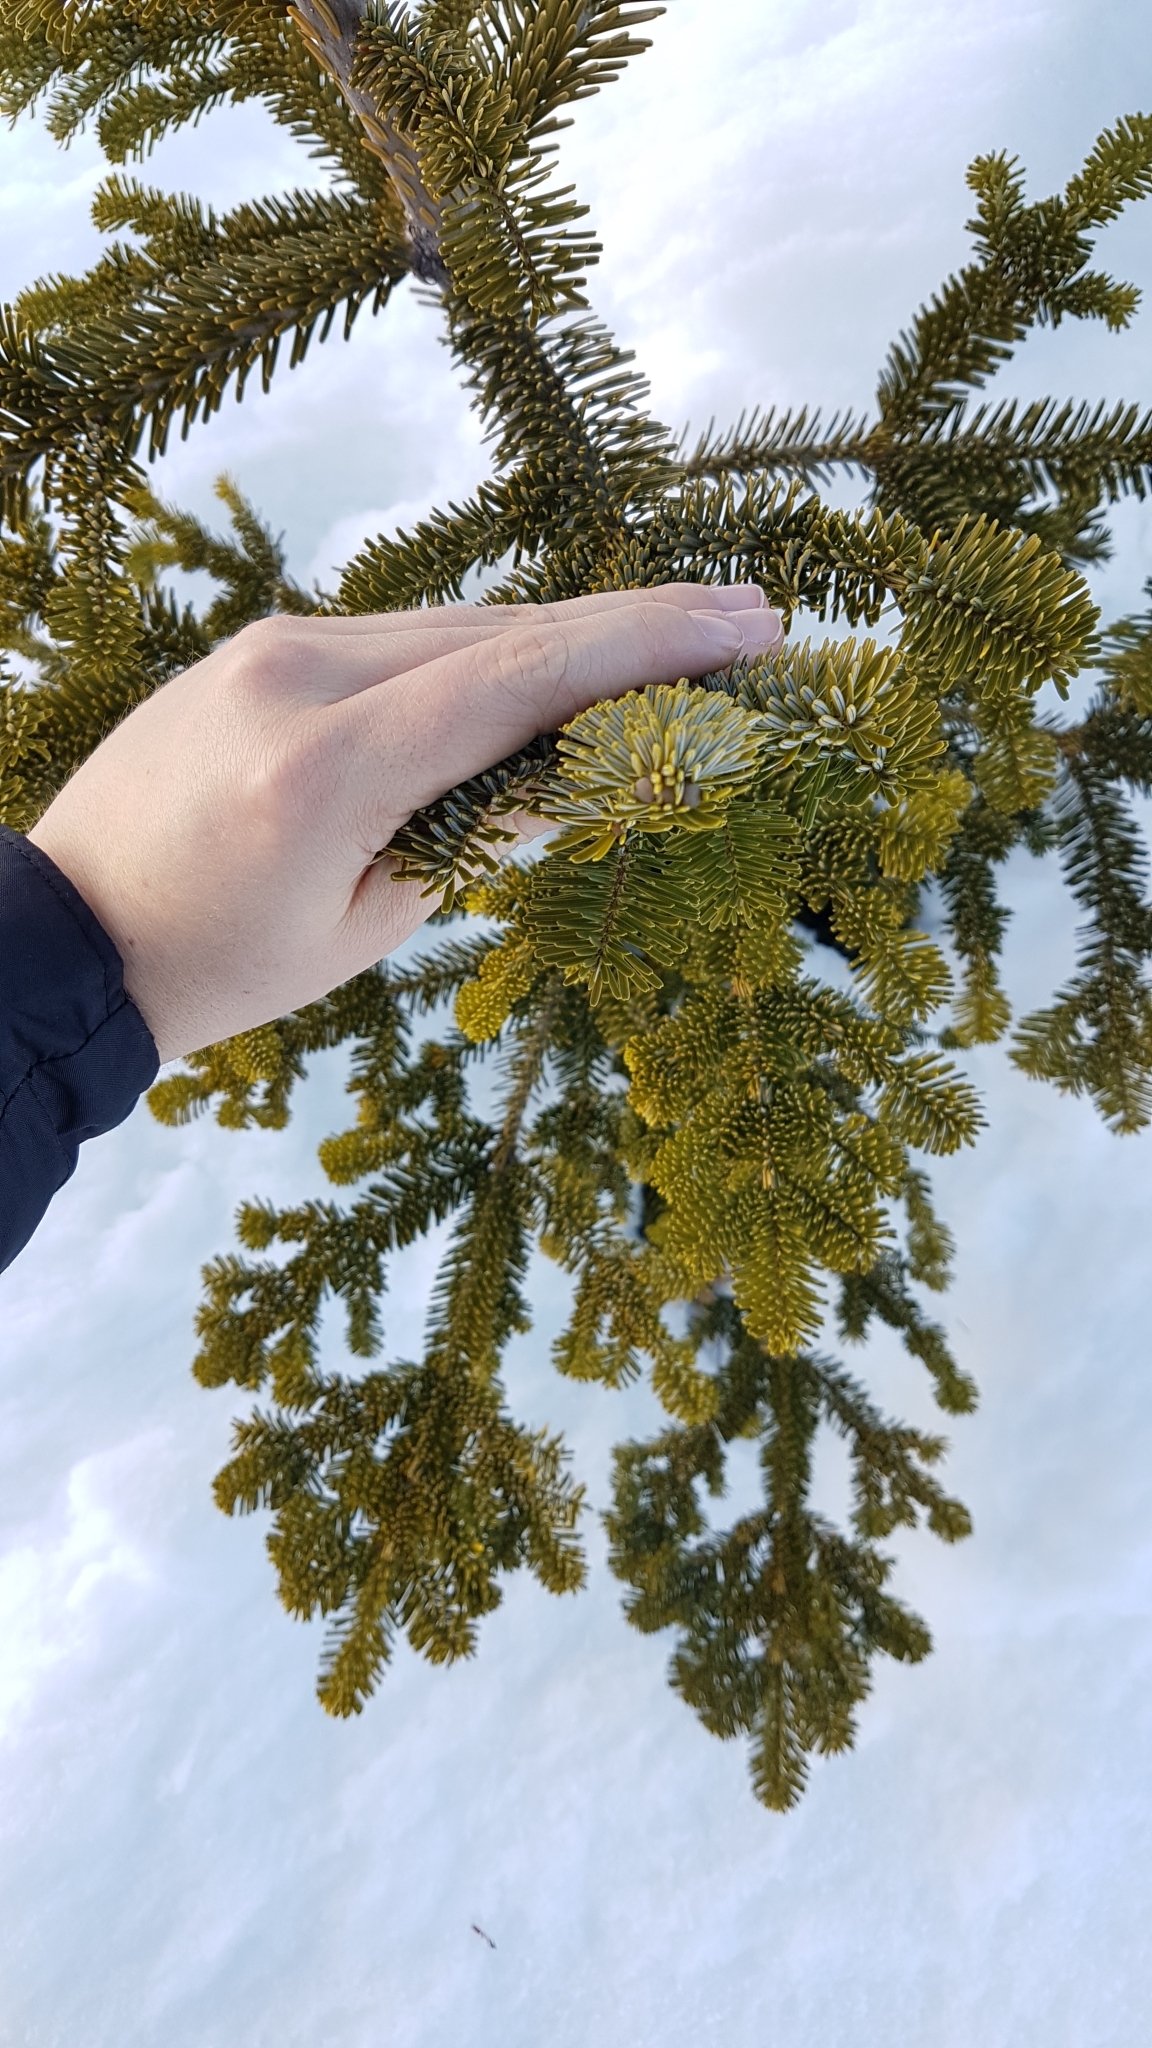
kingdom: Plantae
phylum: Tracheophyta
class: Pinopsida
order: Pinales
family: Pinaceae
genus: Abies
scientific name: Abies amabilis
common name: Pacific silver fir
